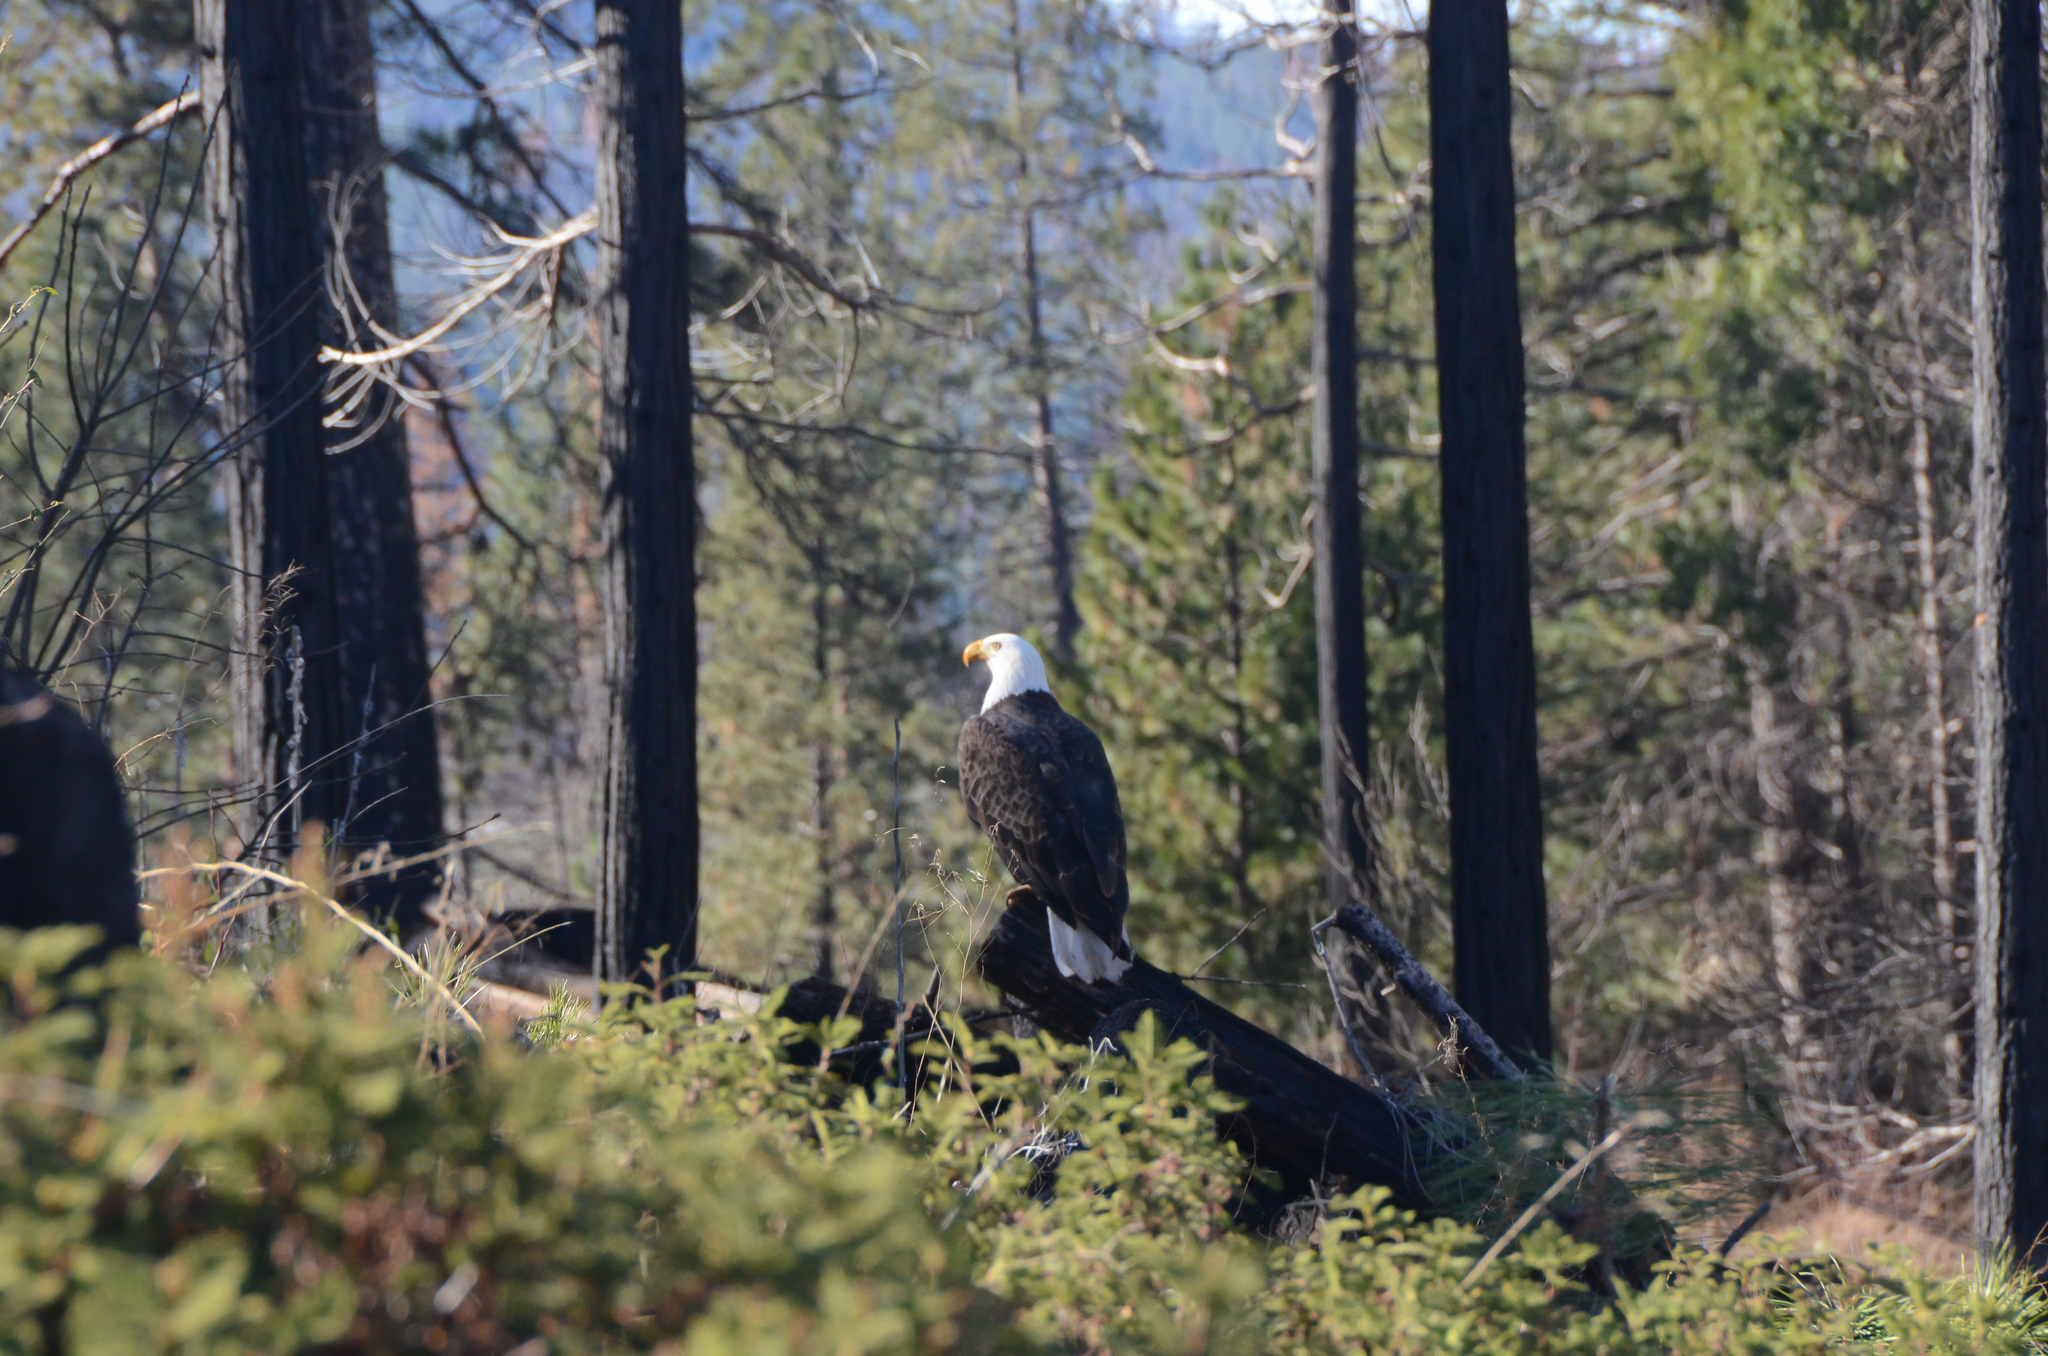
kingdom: Animalia
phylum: Chordata
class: Aves
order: Accipitriformes
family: Accipitridae
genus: Haliaeetus
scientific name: Haliaeetus leucocephalus
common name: Bald eagle
